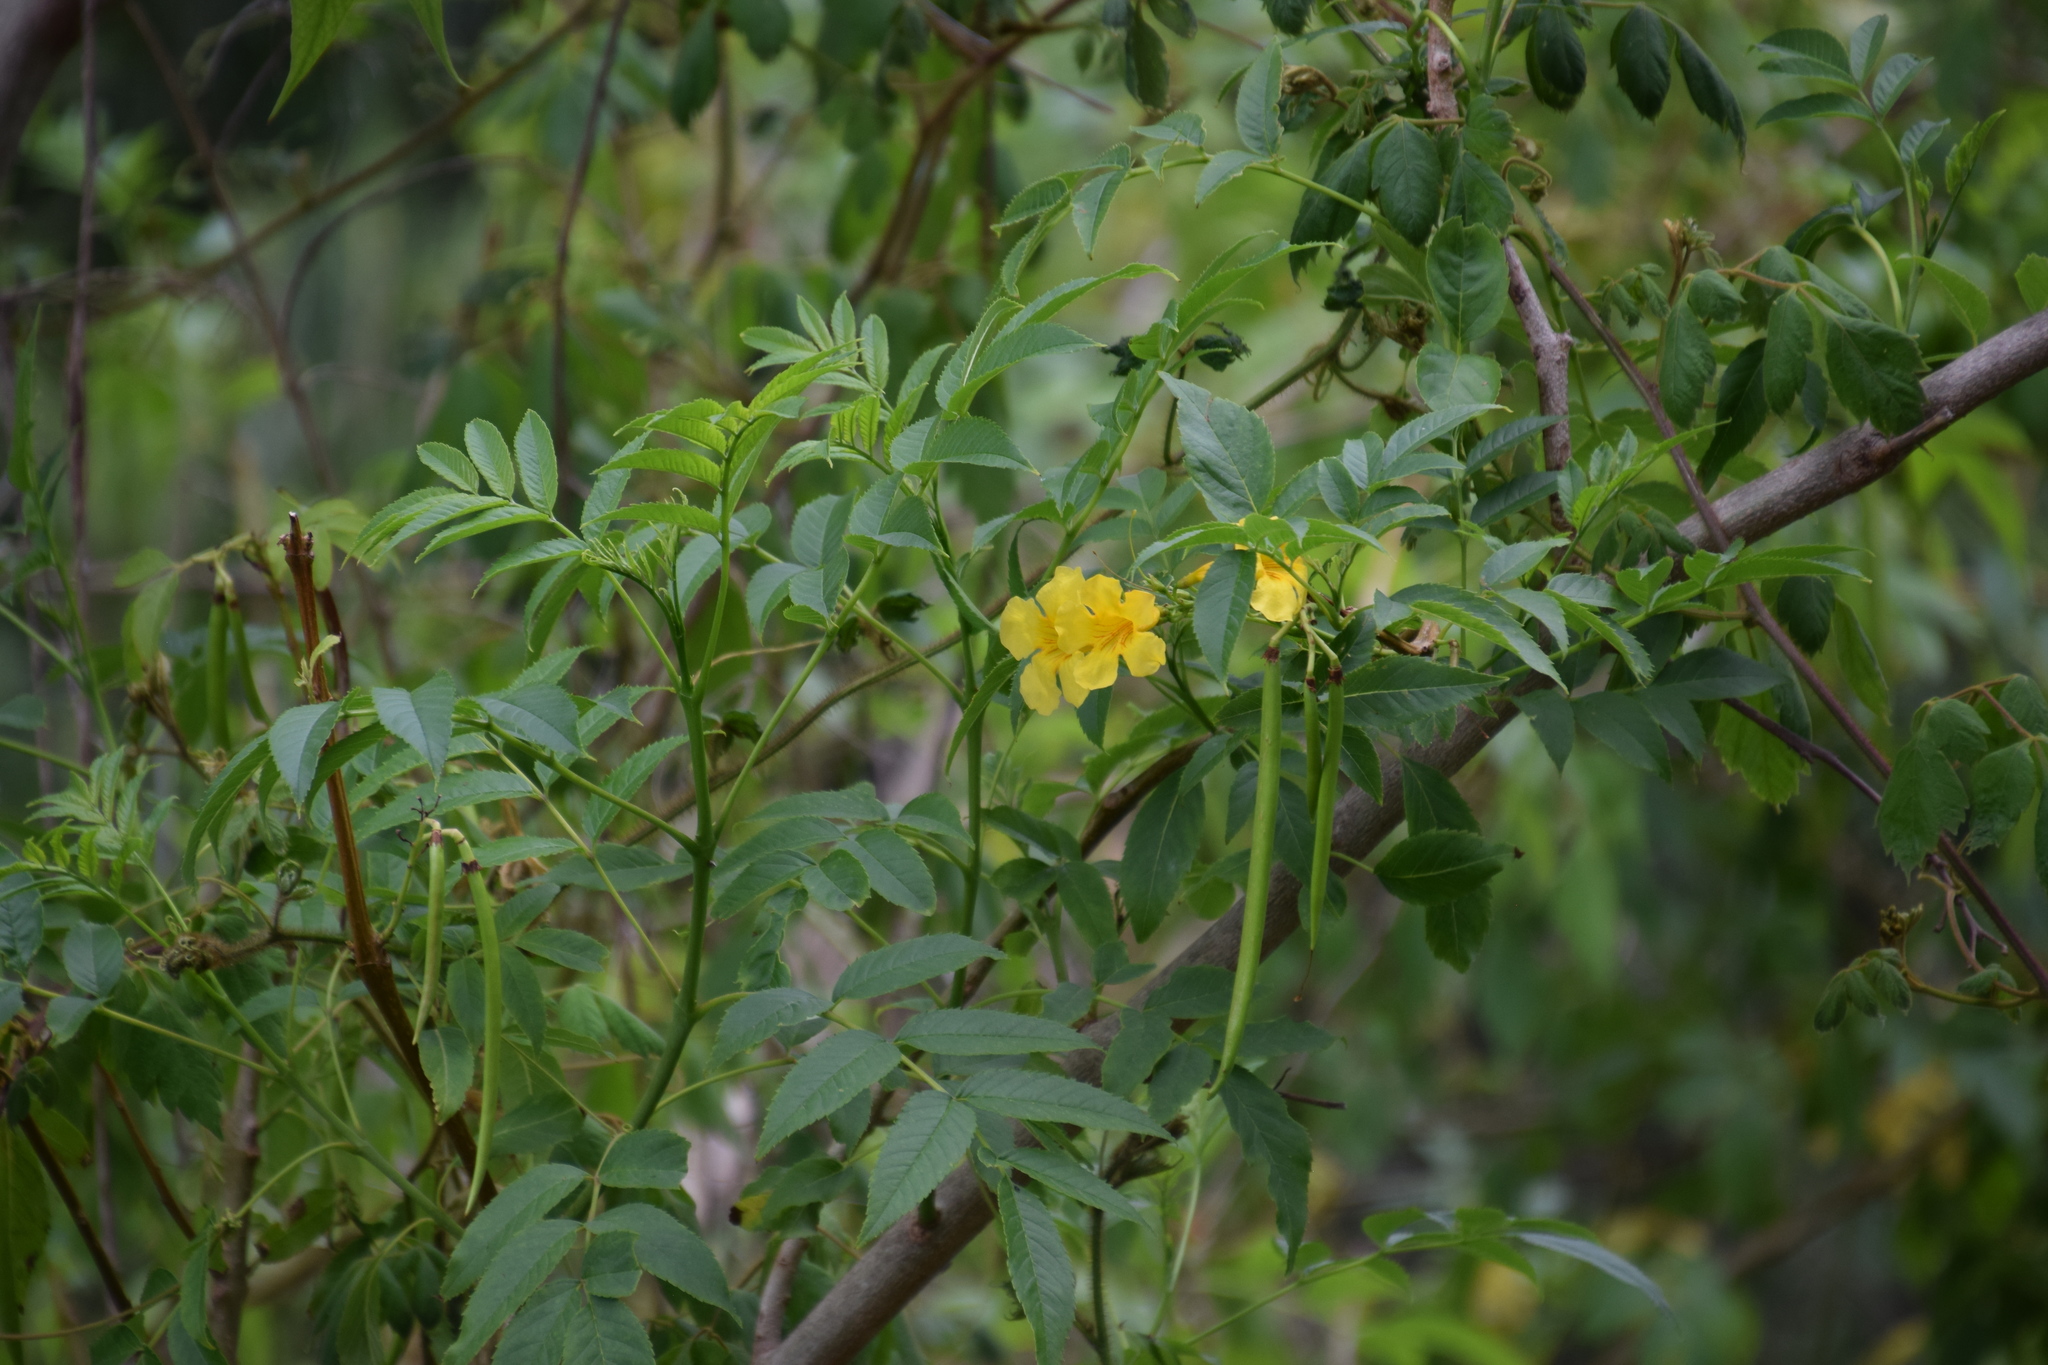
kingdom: Plantae
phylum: Tracheophyta
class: Magnoliopsida
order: Lamiales
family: Bignoniaceae
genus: Tecoma
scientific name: Tecoma stans
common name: Yellow trumpetbush
